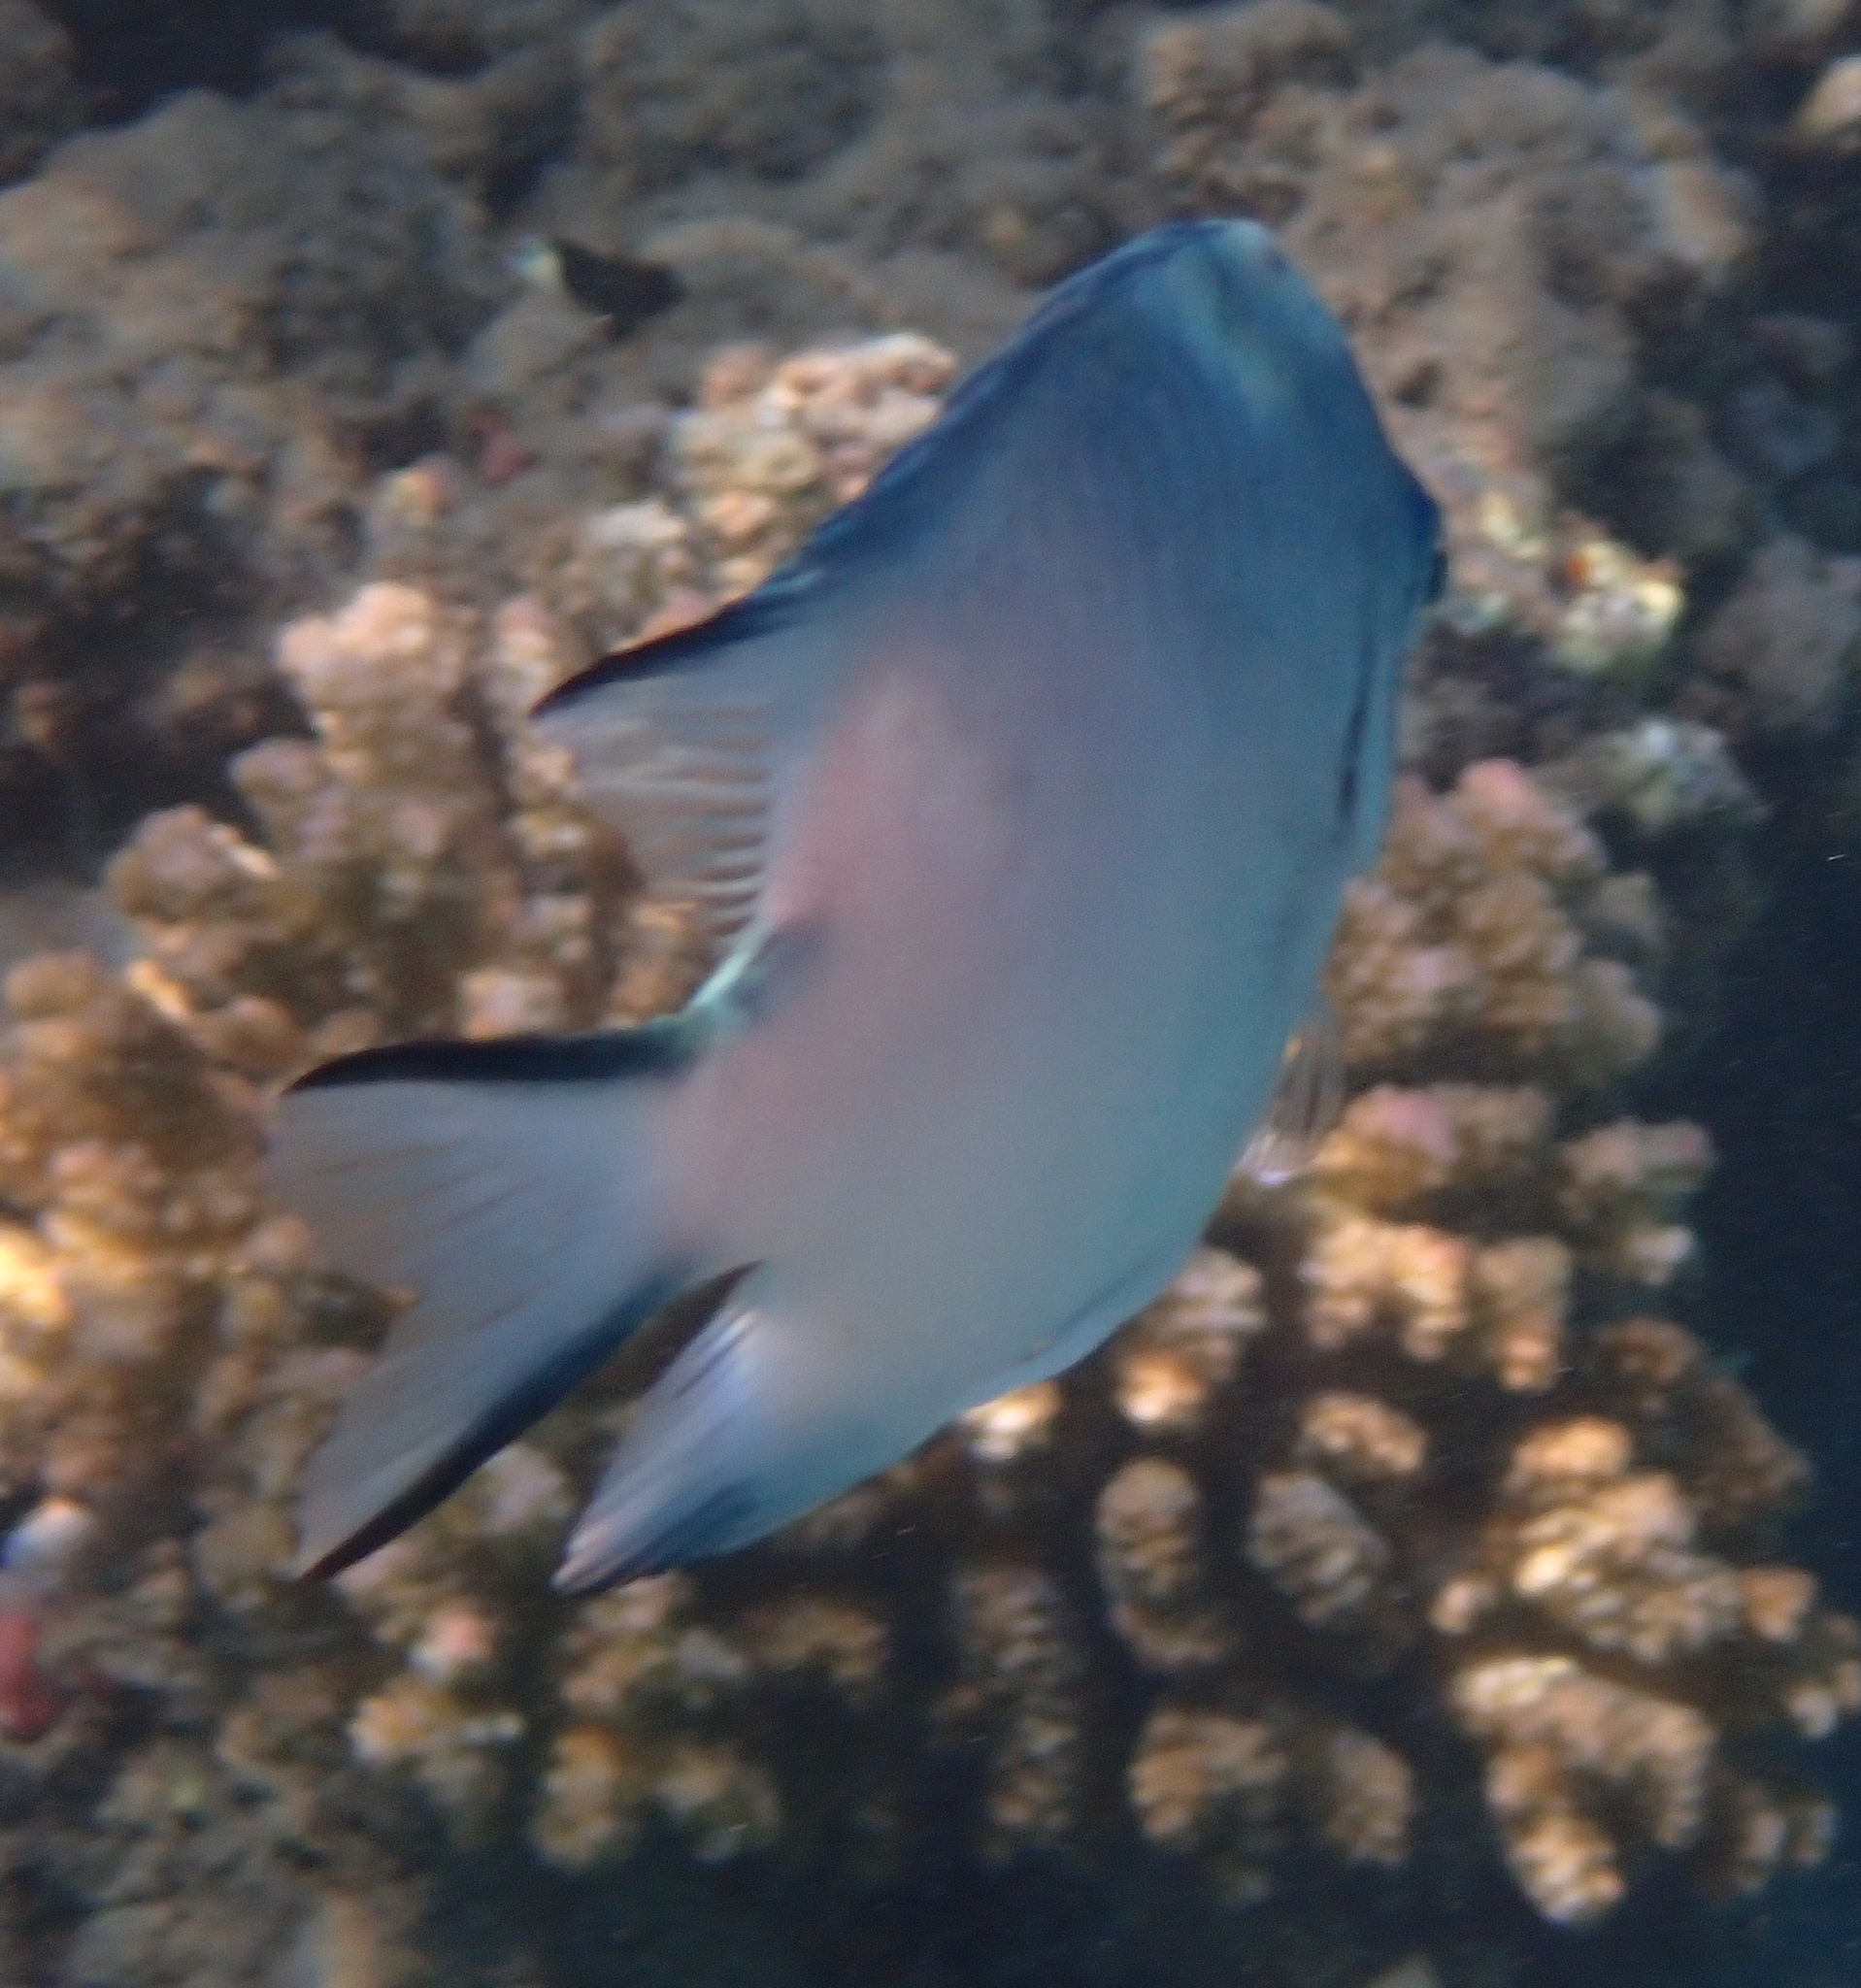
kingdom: Animalia
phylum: Chordata
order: Perciformes
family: Pomacentridae
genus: Amblyglyphidodon
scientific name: Amblyglyphidodon indicus
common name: Maldives damselfish
